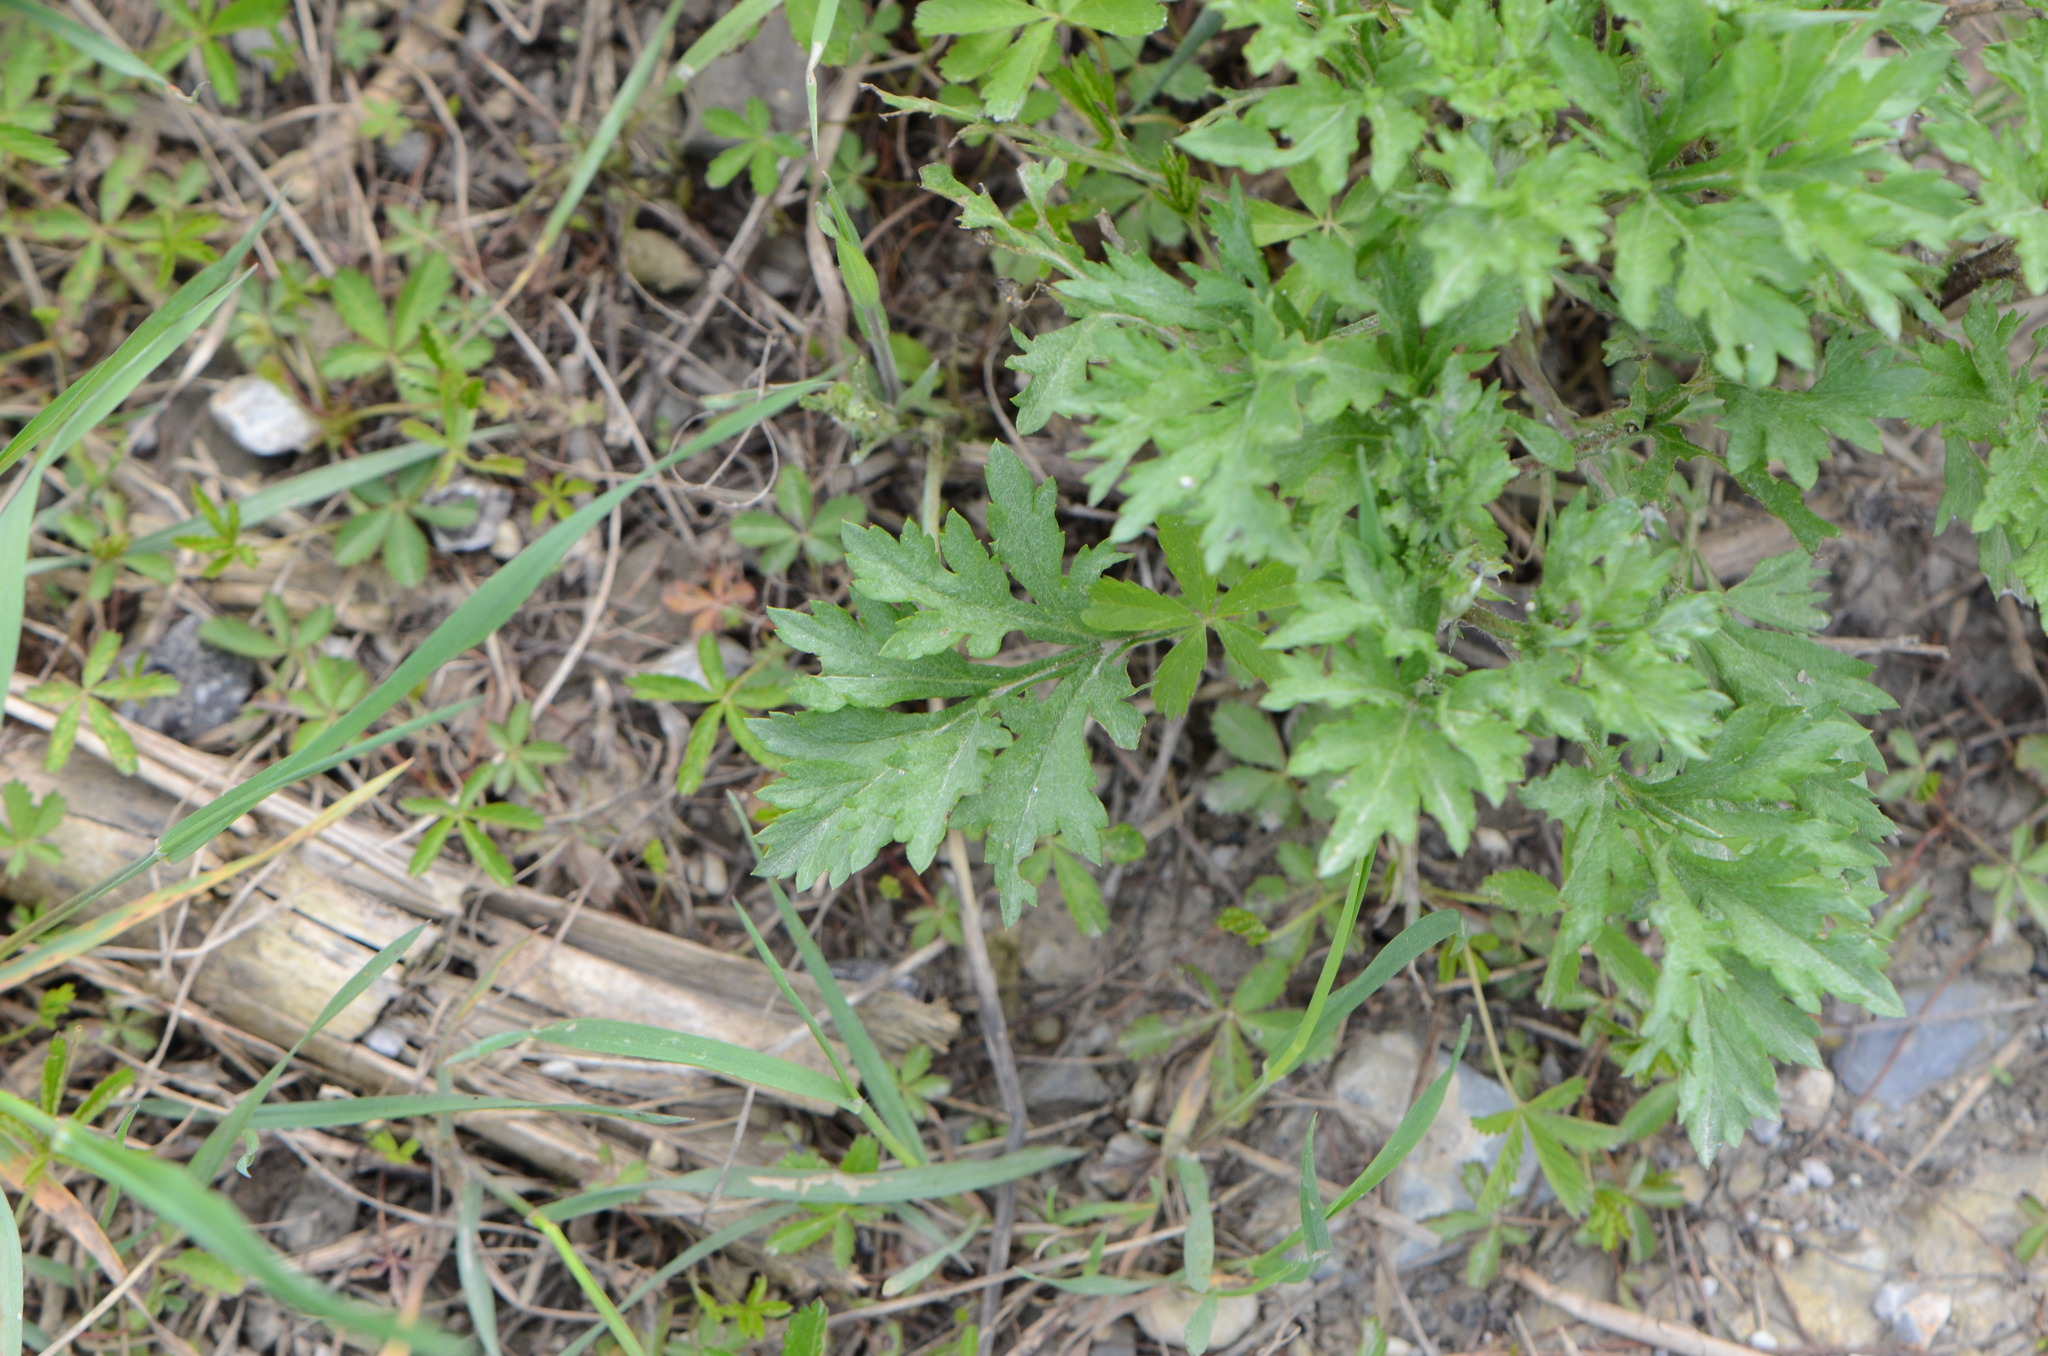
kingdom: Plantae
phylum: Tracheophyta
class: Magnoliopsida
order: Asterales
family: Asteraceae
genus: Artemisia
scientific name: Artemisia vulgaris
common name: Mugwort
